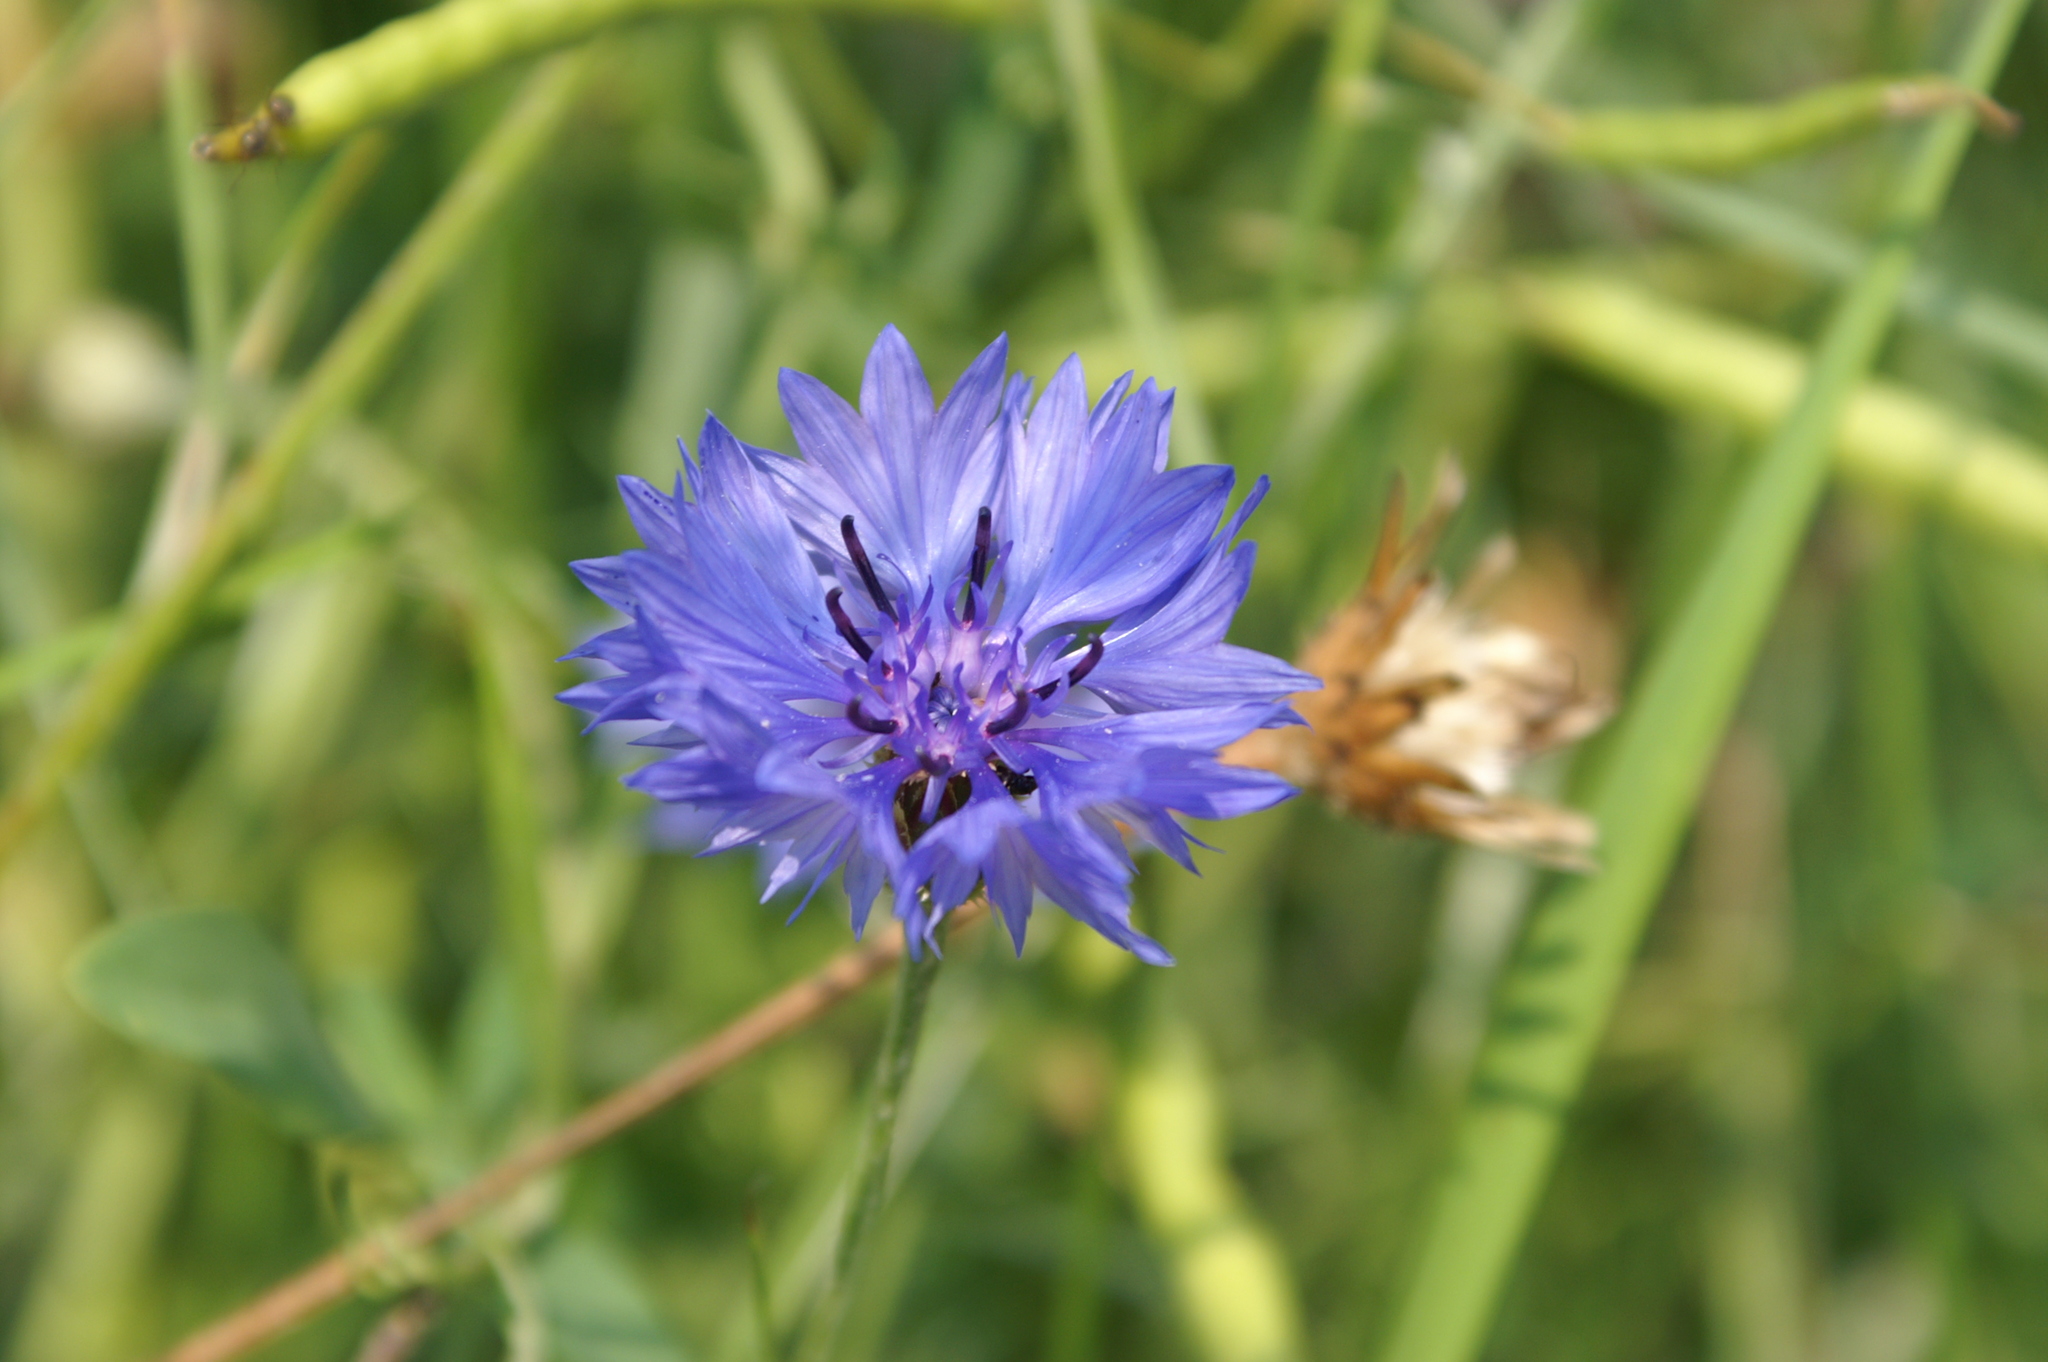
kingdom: Plantae
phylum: Tracheophyta
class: Magnoliopsida
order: Asterales
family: Asteraceae
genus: Centaurea
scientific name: Centaurea cyanus
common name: Cornflower
